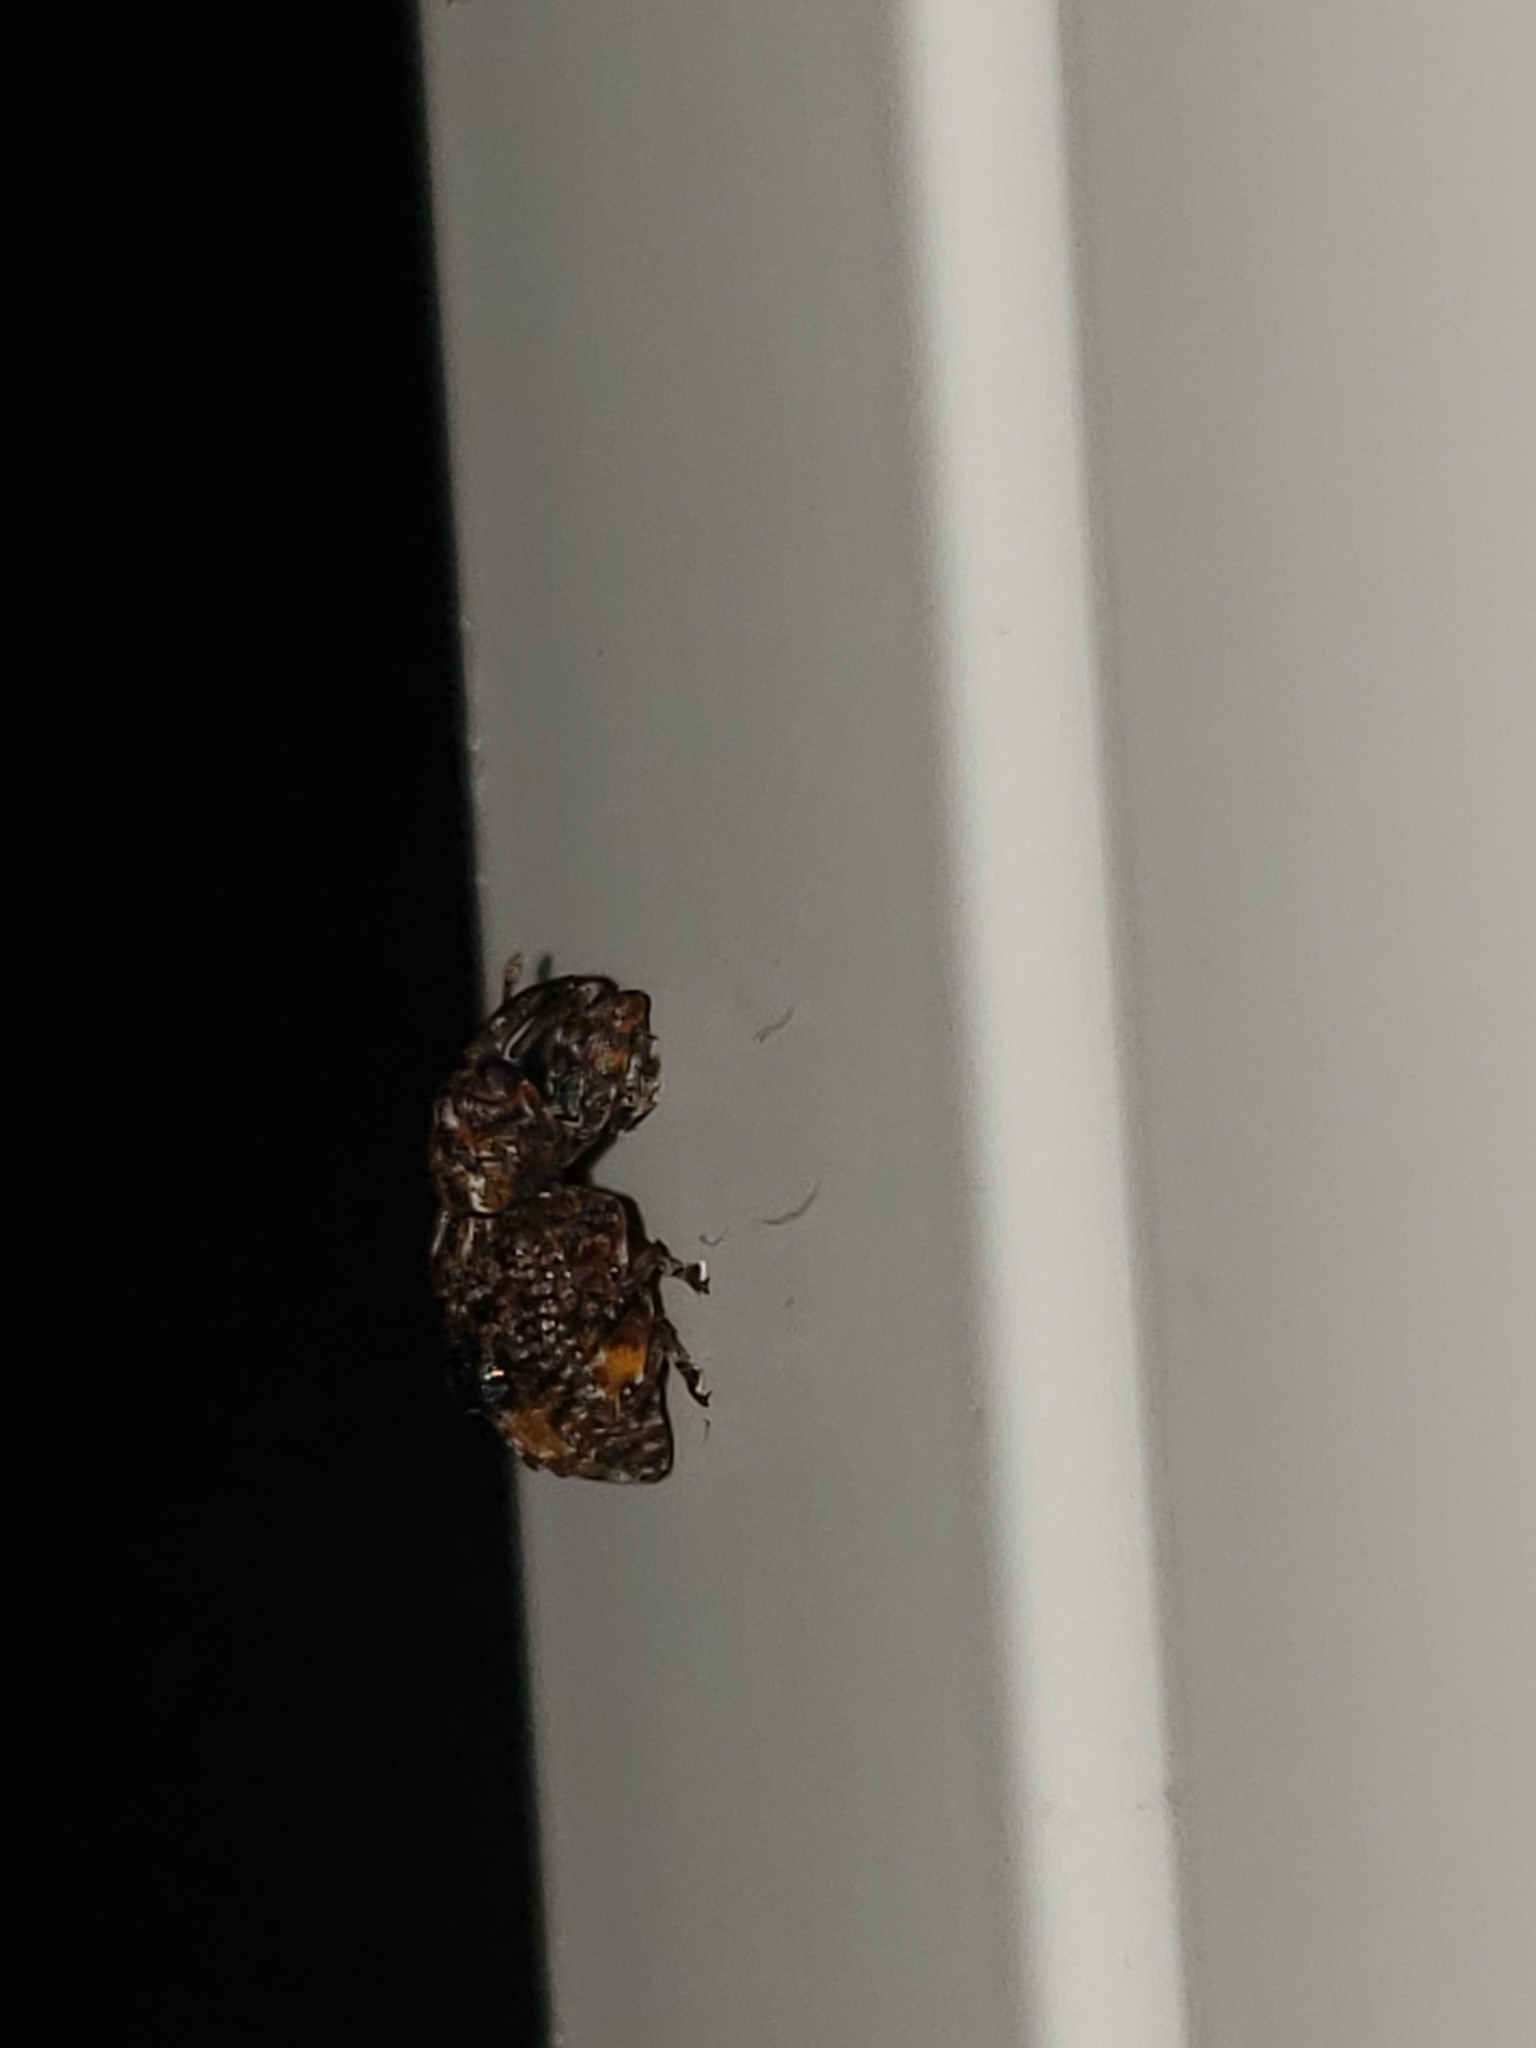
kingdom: Animalia
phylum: Arthropoda
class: Insecta
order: Coleoptera
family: Curculionidae
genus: Conotrachelus
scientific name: Conotrachelus nenuphar
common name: Plum curculio
